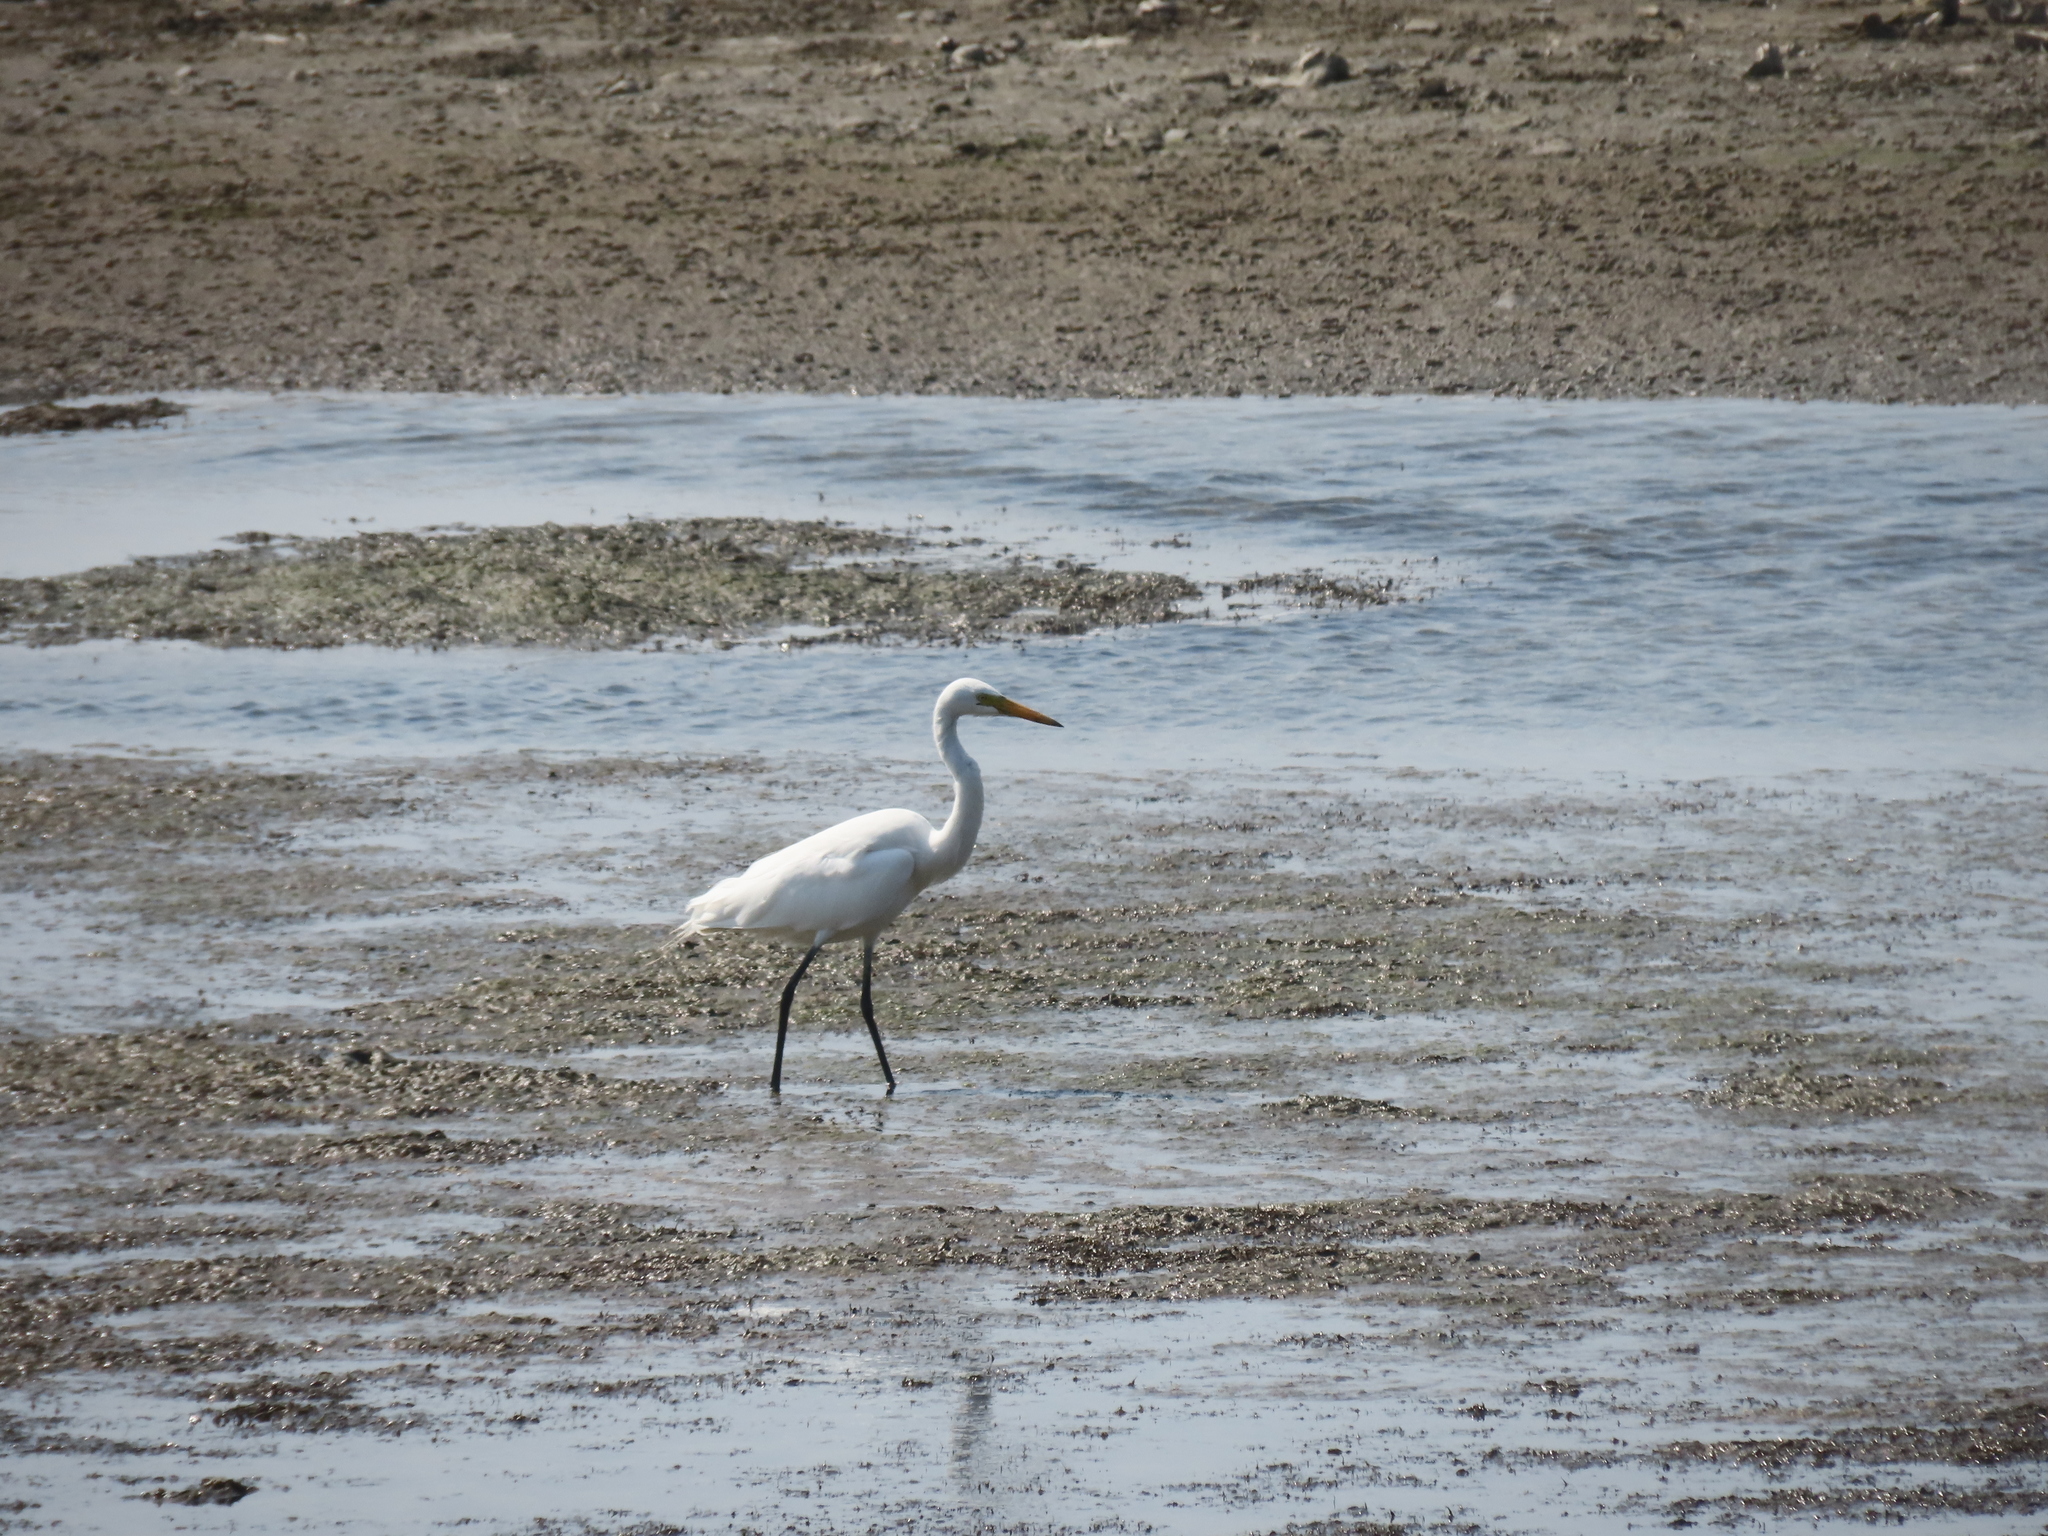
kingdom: Animalia
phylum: Chordata
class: Aves
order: Pelecaniformes
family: Ardeidae
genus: Egretta
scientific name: Egretta intermedia
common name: Intermediate egret
